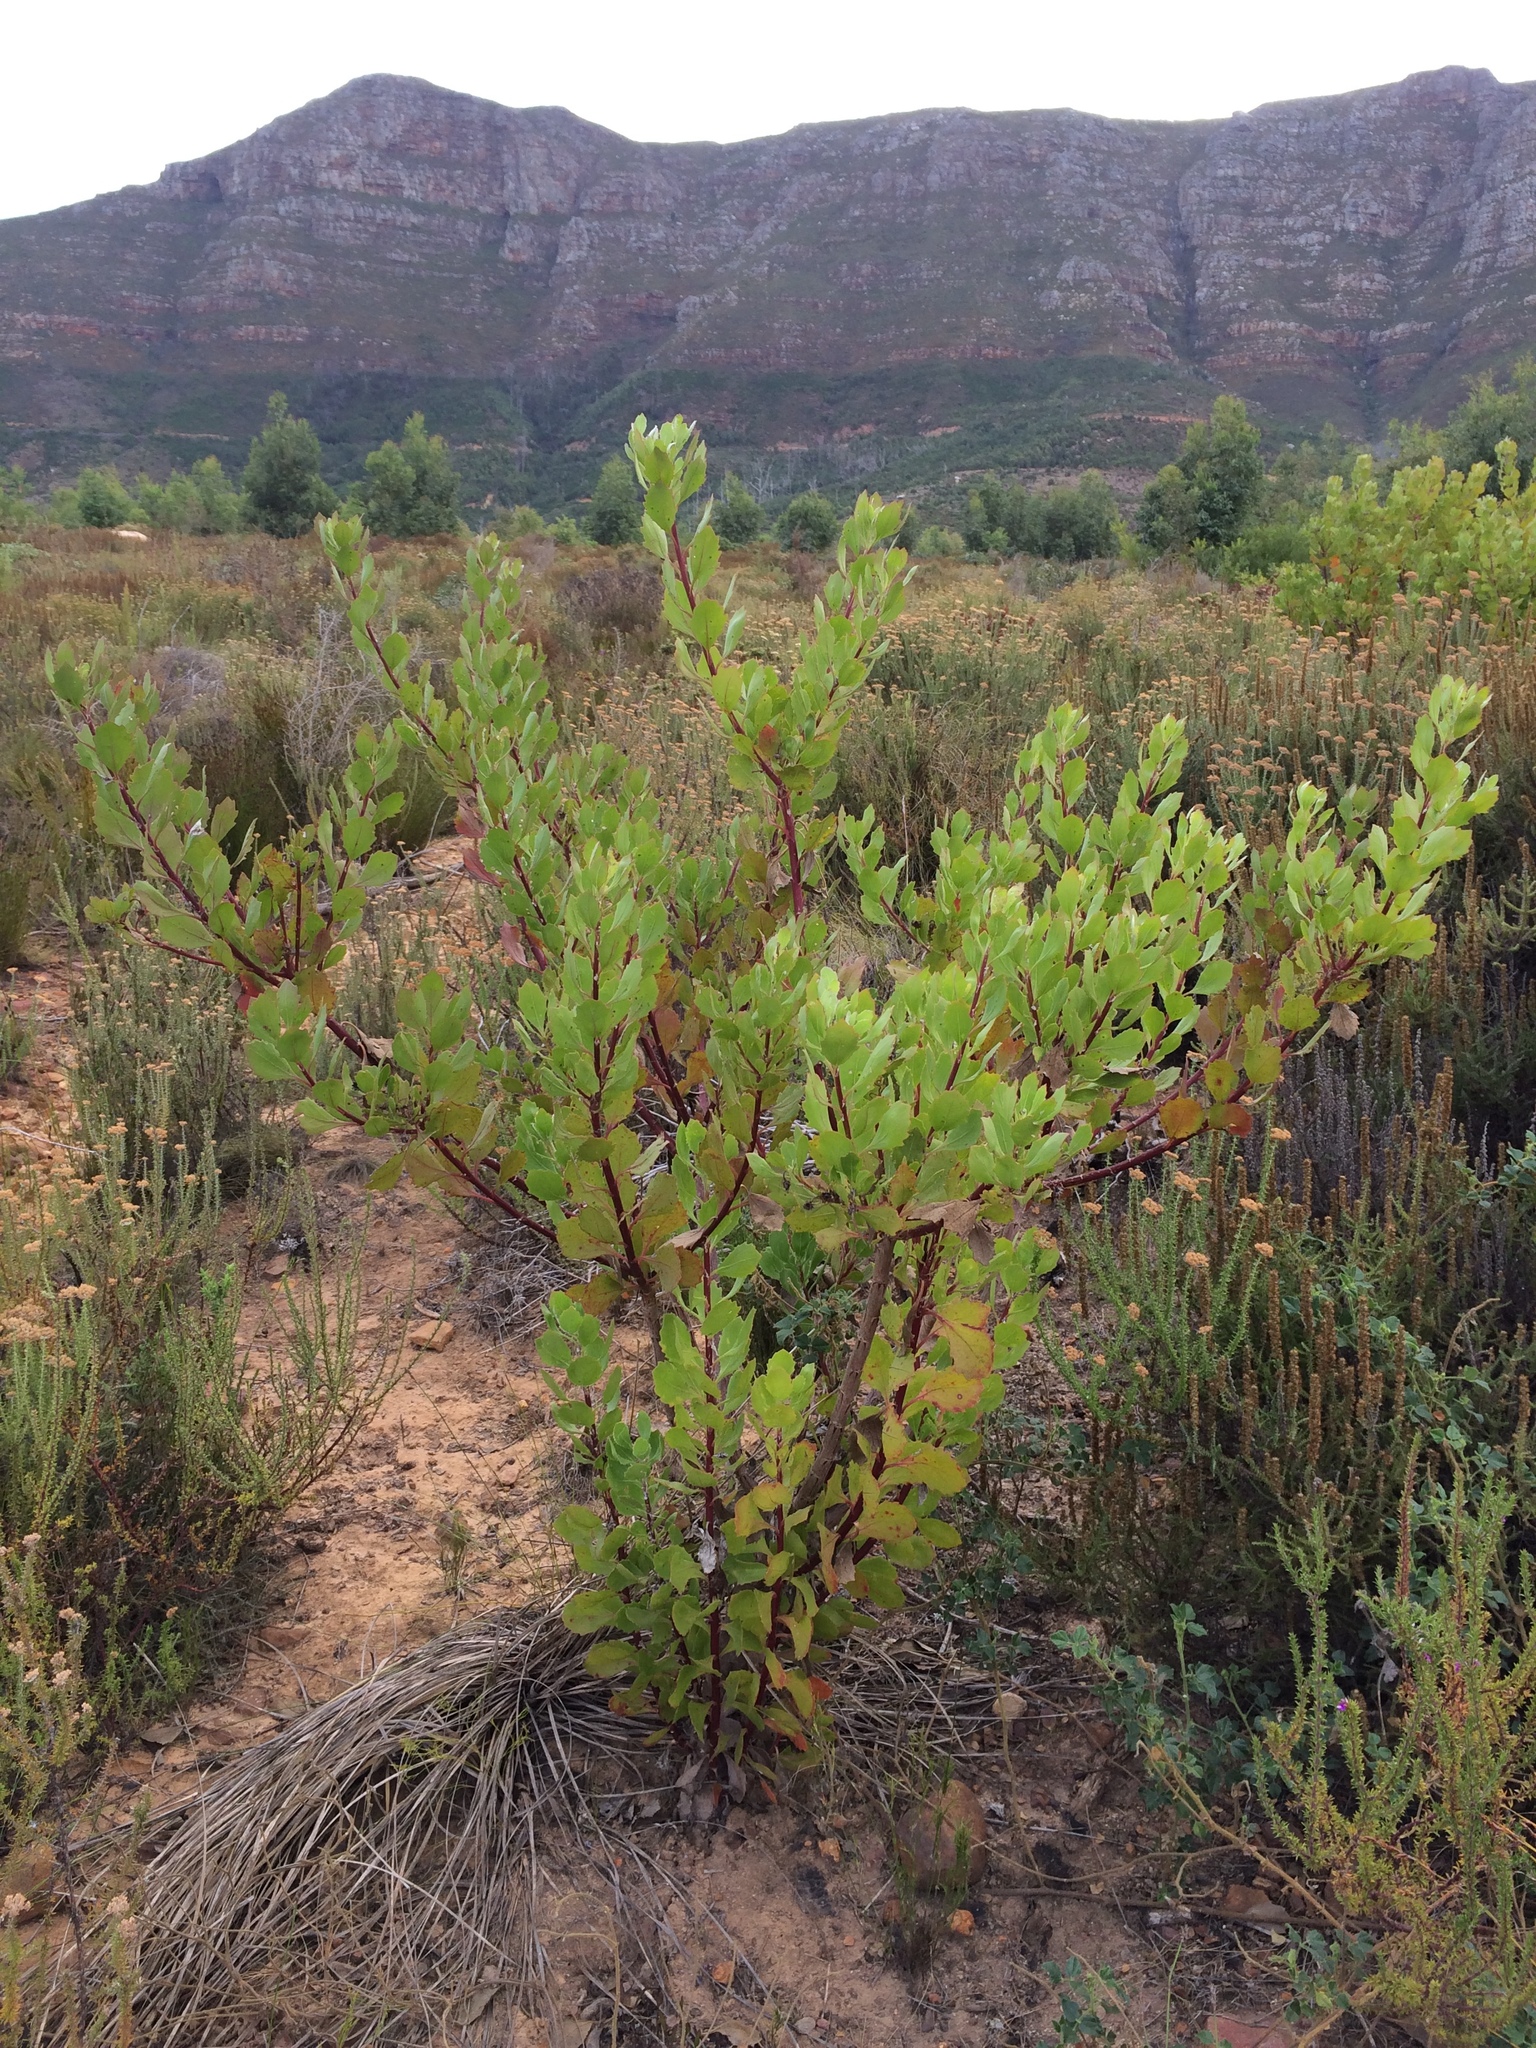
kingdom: Plantae
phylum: Tracheophyta
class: Magnoliopsida
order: Asterales
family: Asteraceae
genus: Osteospermum
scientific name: Osteospermum moniliferum
